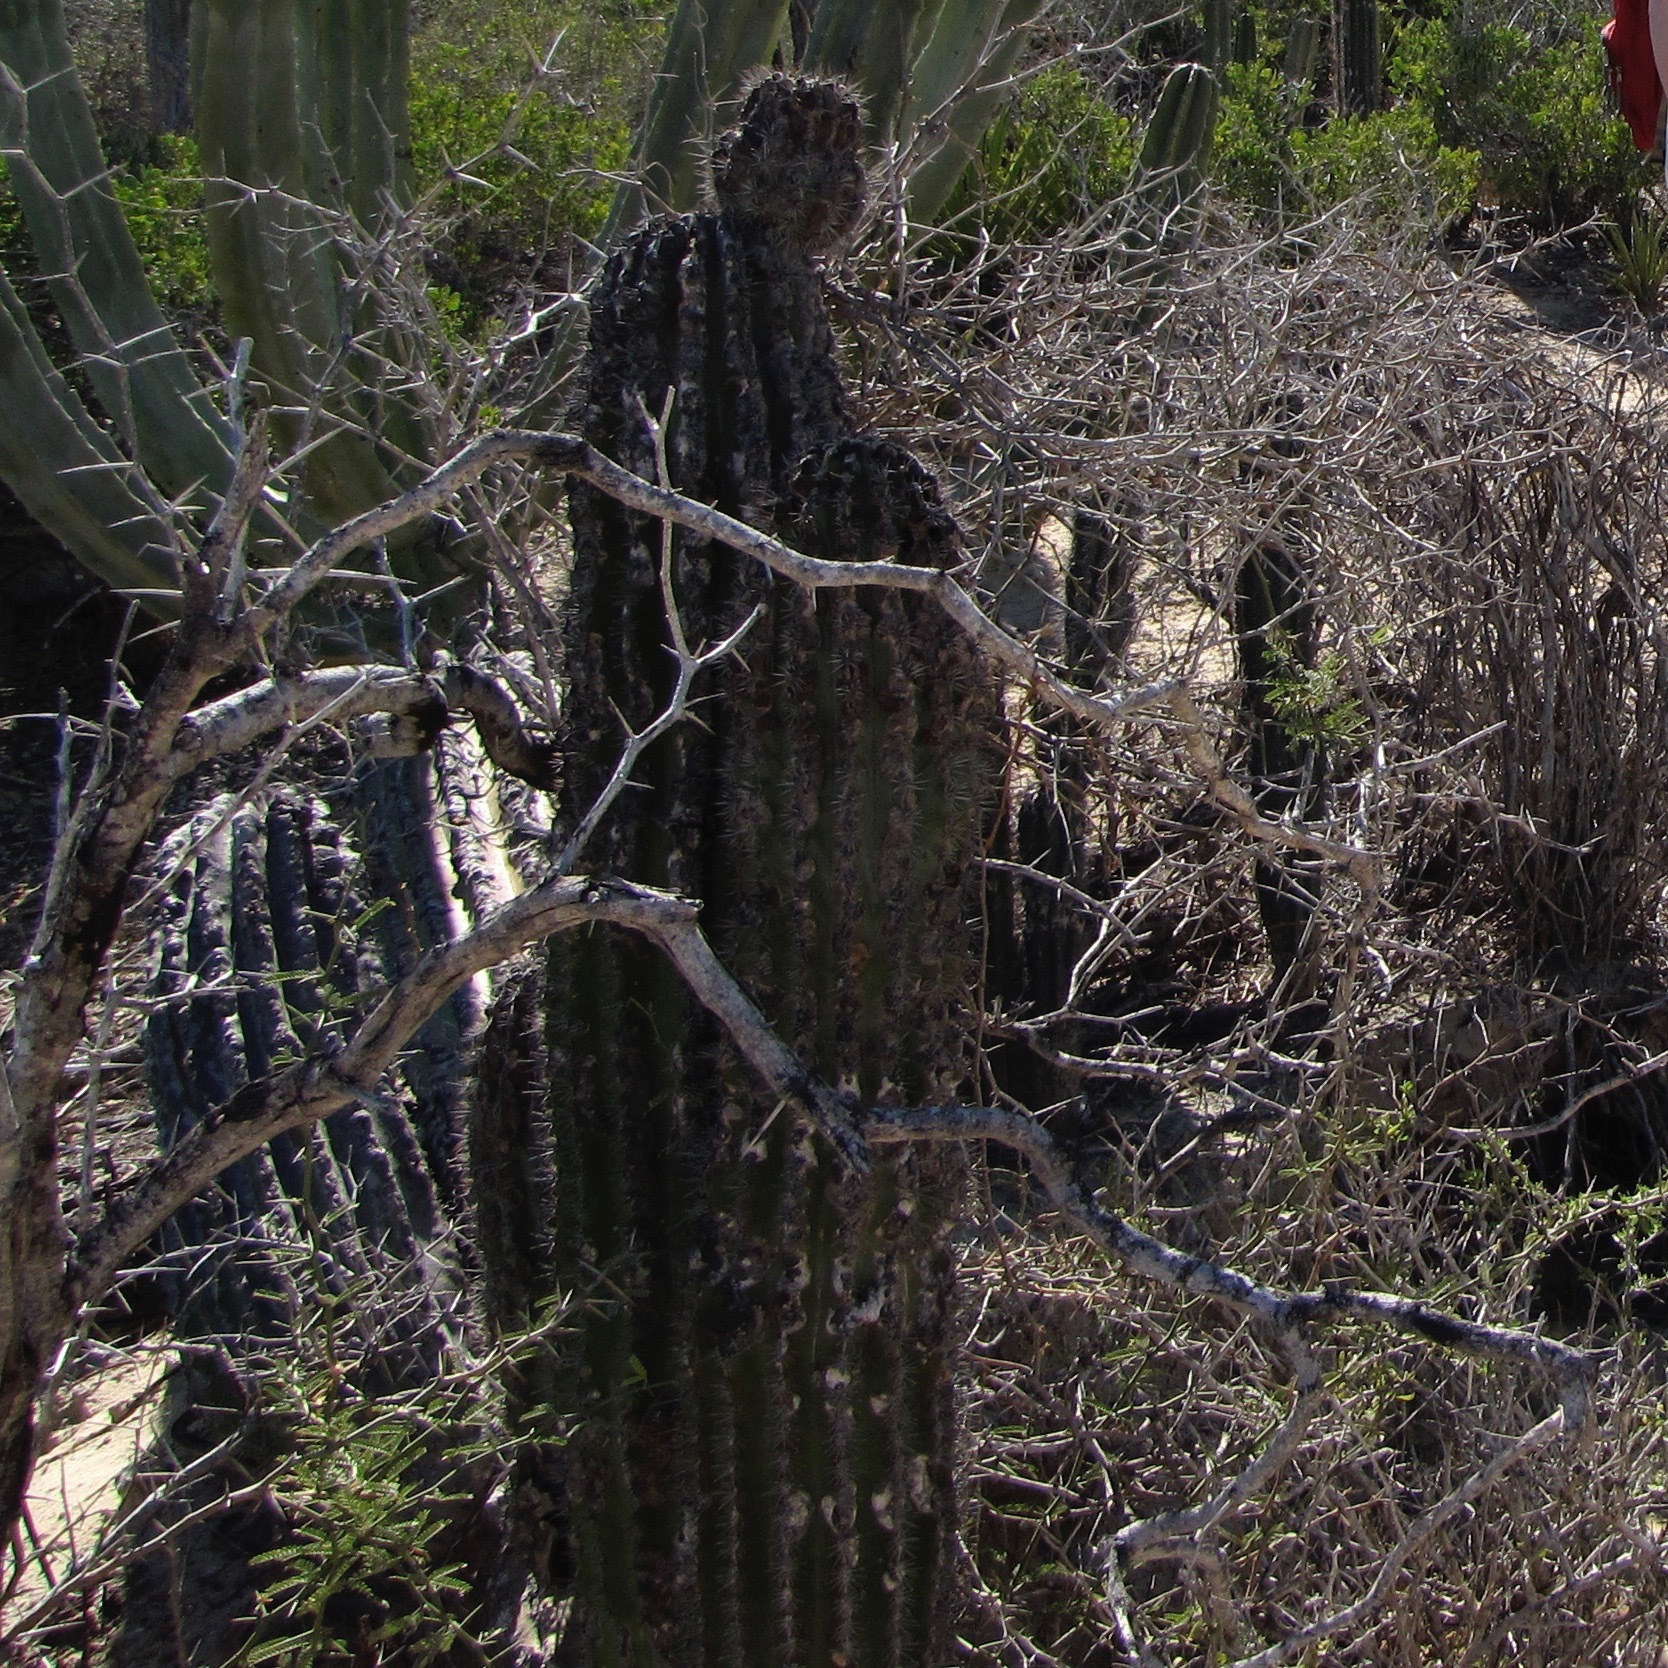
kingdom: Plantae
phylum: Tracheophyta
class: Magnoliopsida
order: Caryophyllales
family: Cactaceae
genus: Pachycereus
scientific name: Pachycereus pringlei
